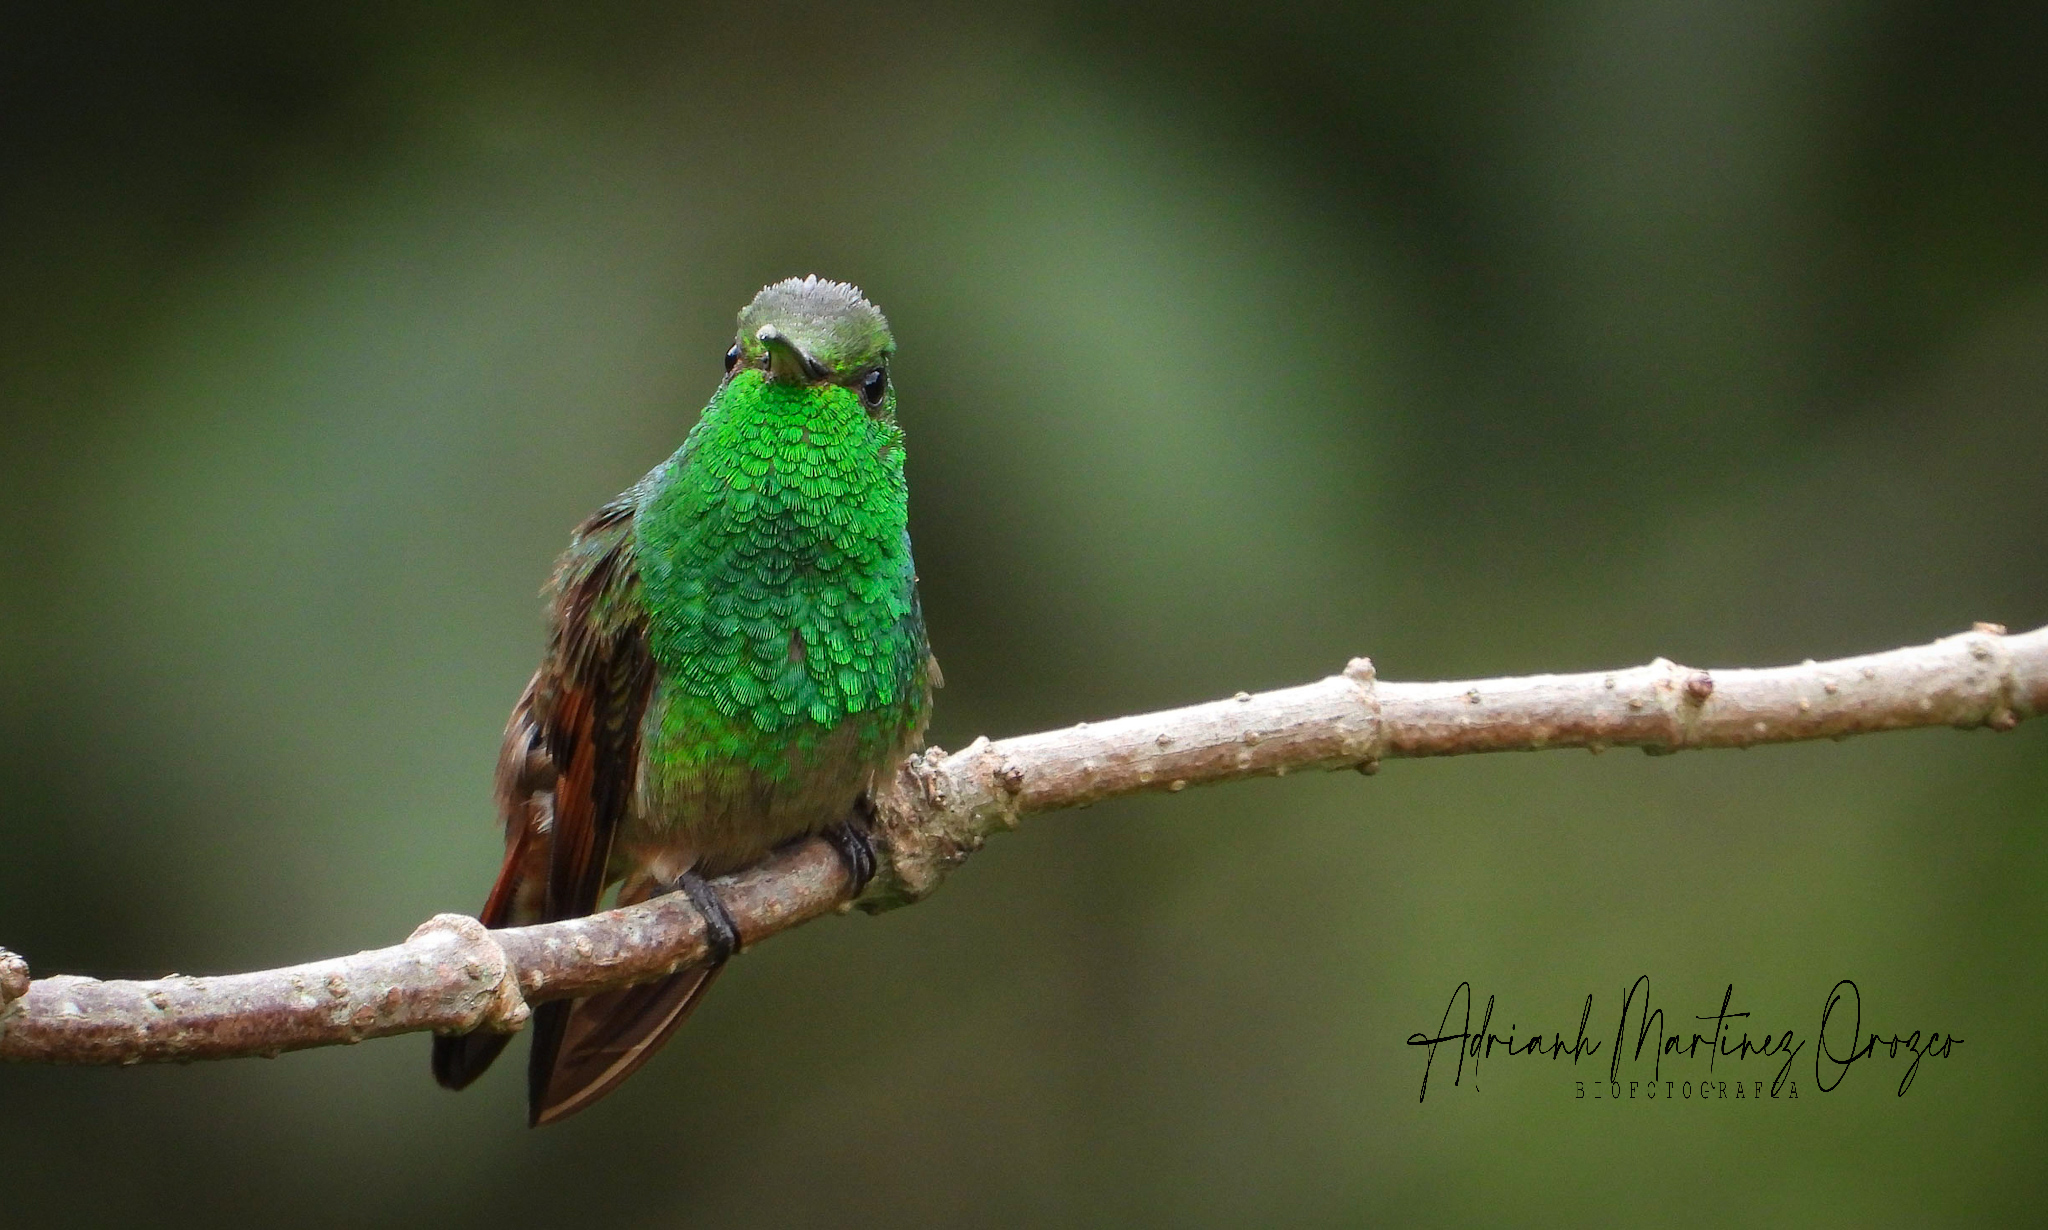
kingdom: Animalia
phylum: Chordata
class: Aves
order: Apodiformes
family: Trochilidae
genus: Saucerottia
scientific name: Saucerottia beryllina
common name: Berylline hummingbird
